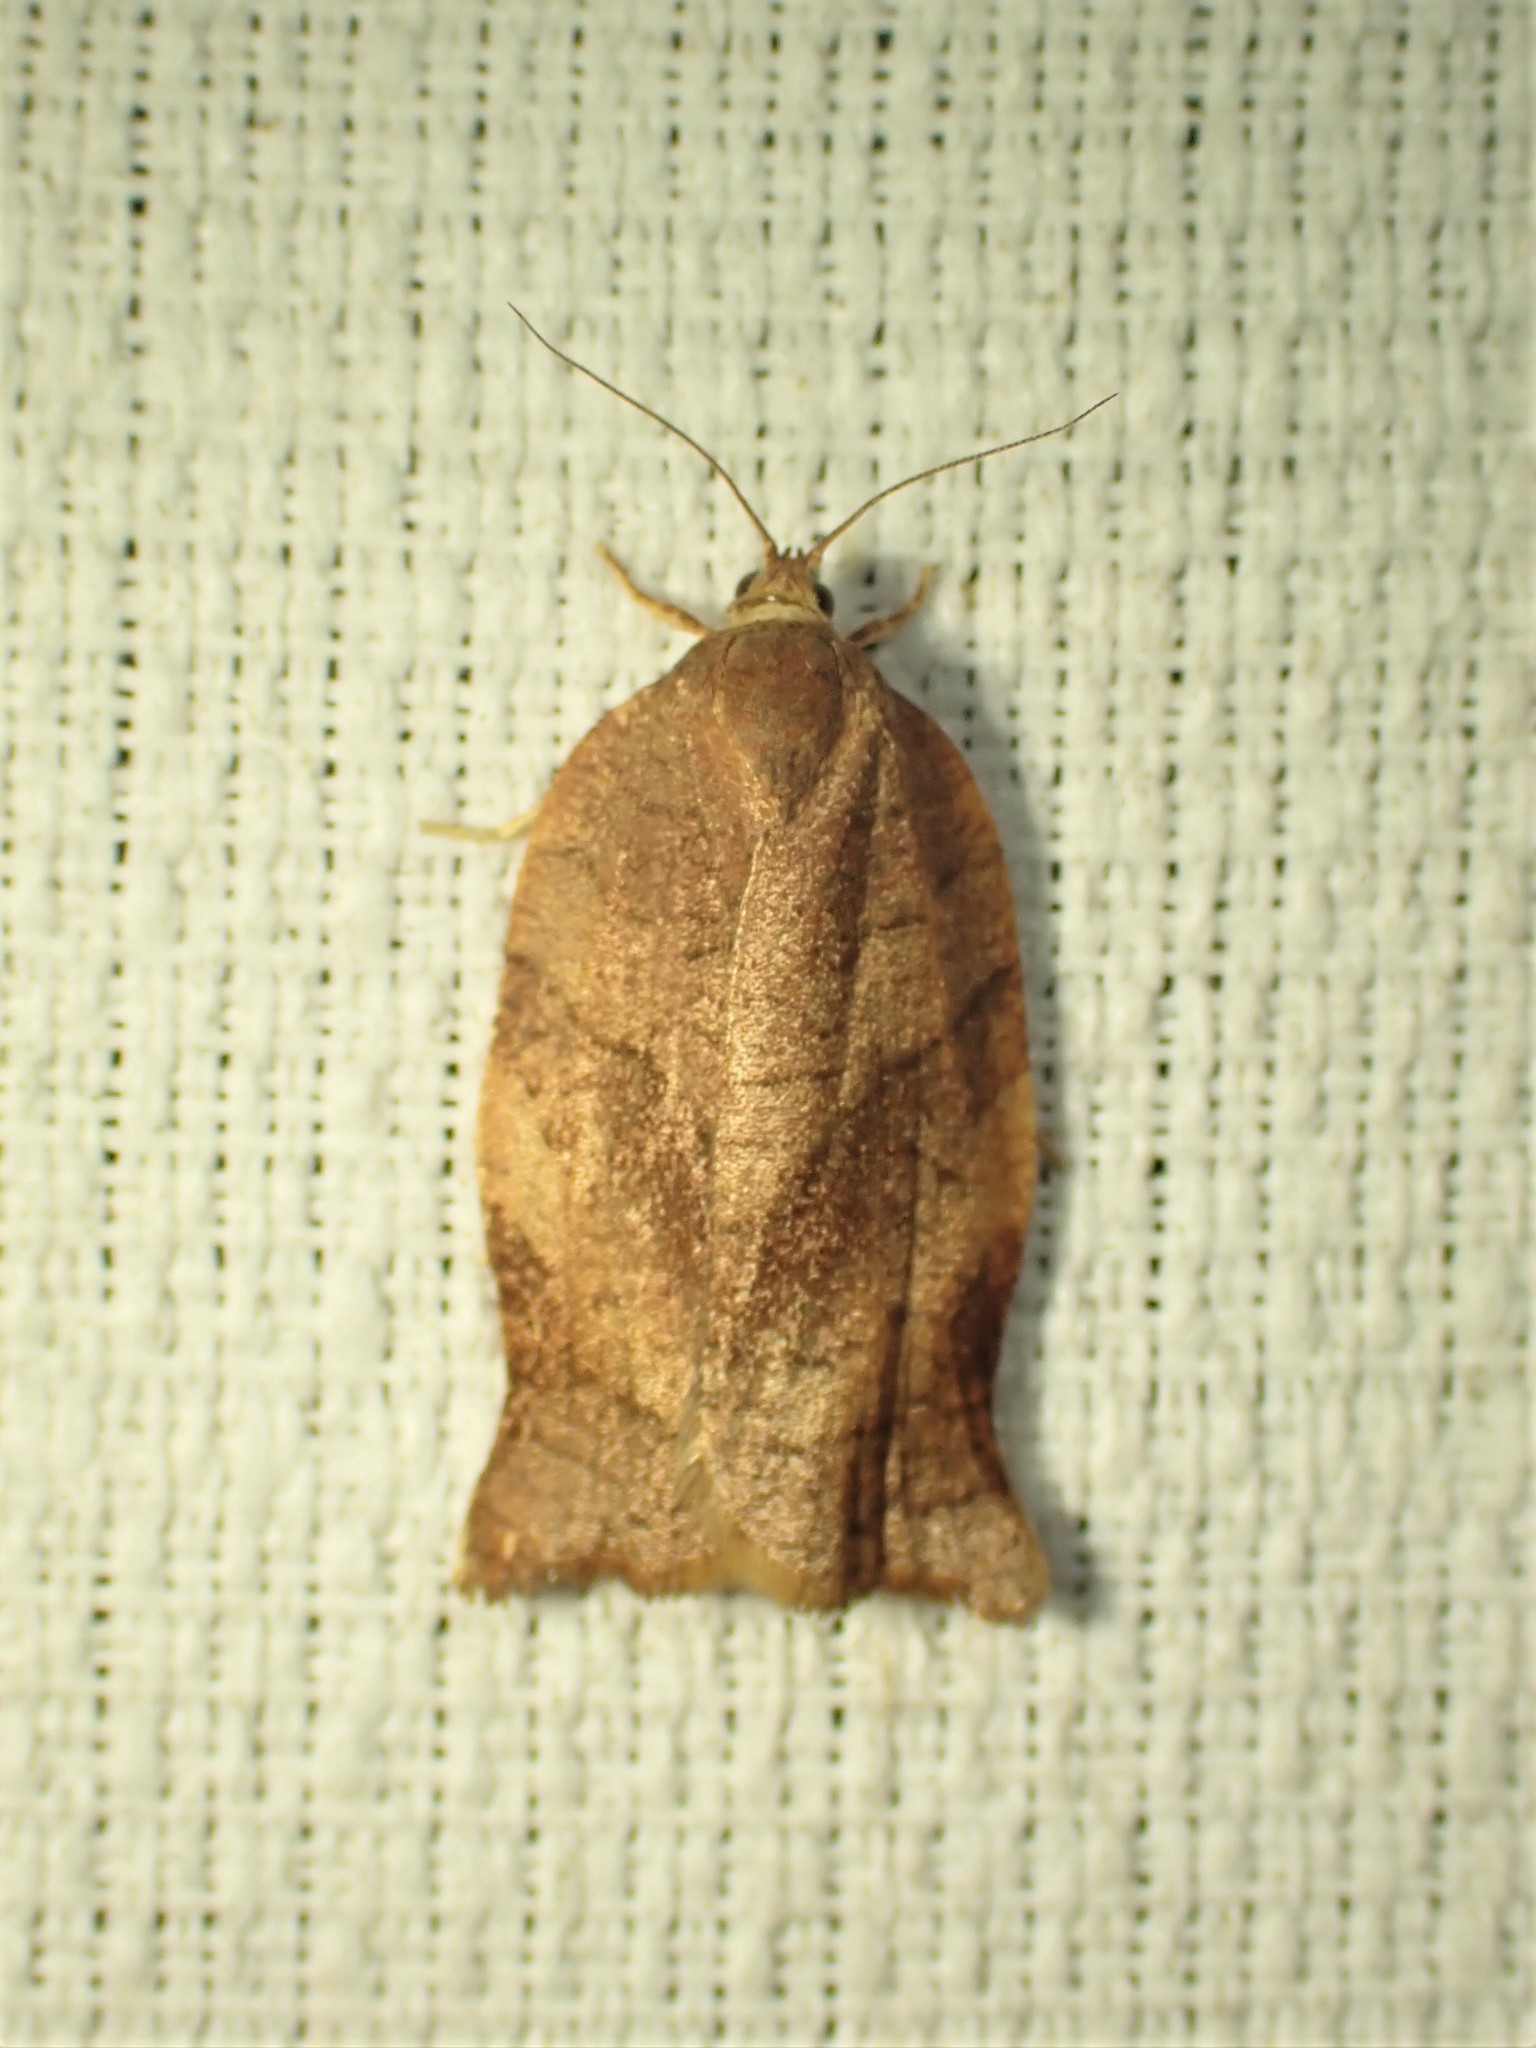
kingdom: Animalia
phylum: Arthropoda
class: Insecta
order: Lepidoptera
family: Tortricidae
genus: Choristoneura
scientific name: Choristoneura rosaceana
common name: Oblique-banded leafroller moth
